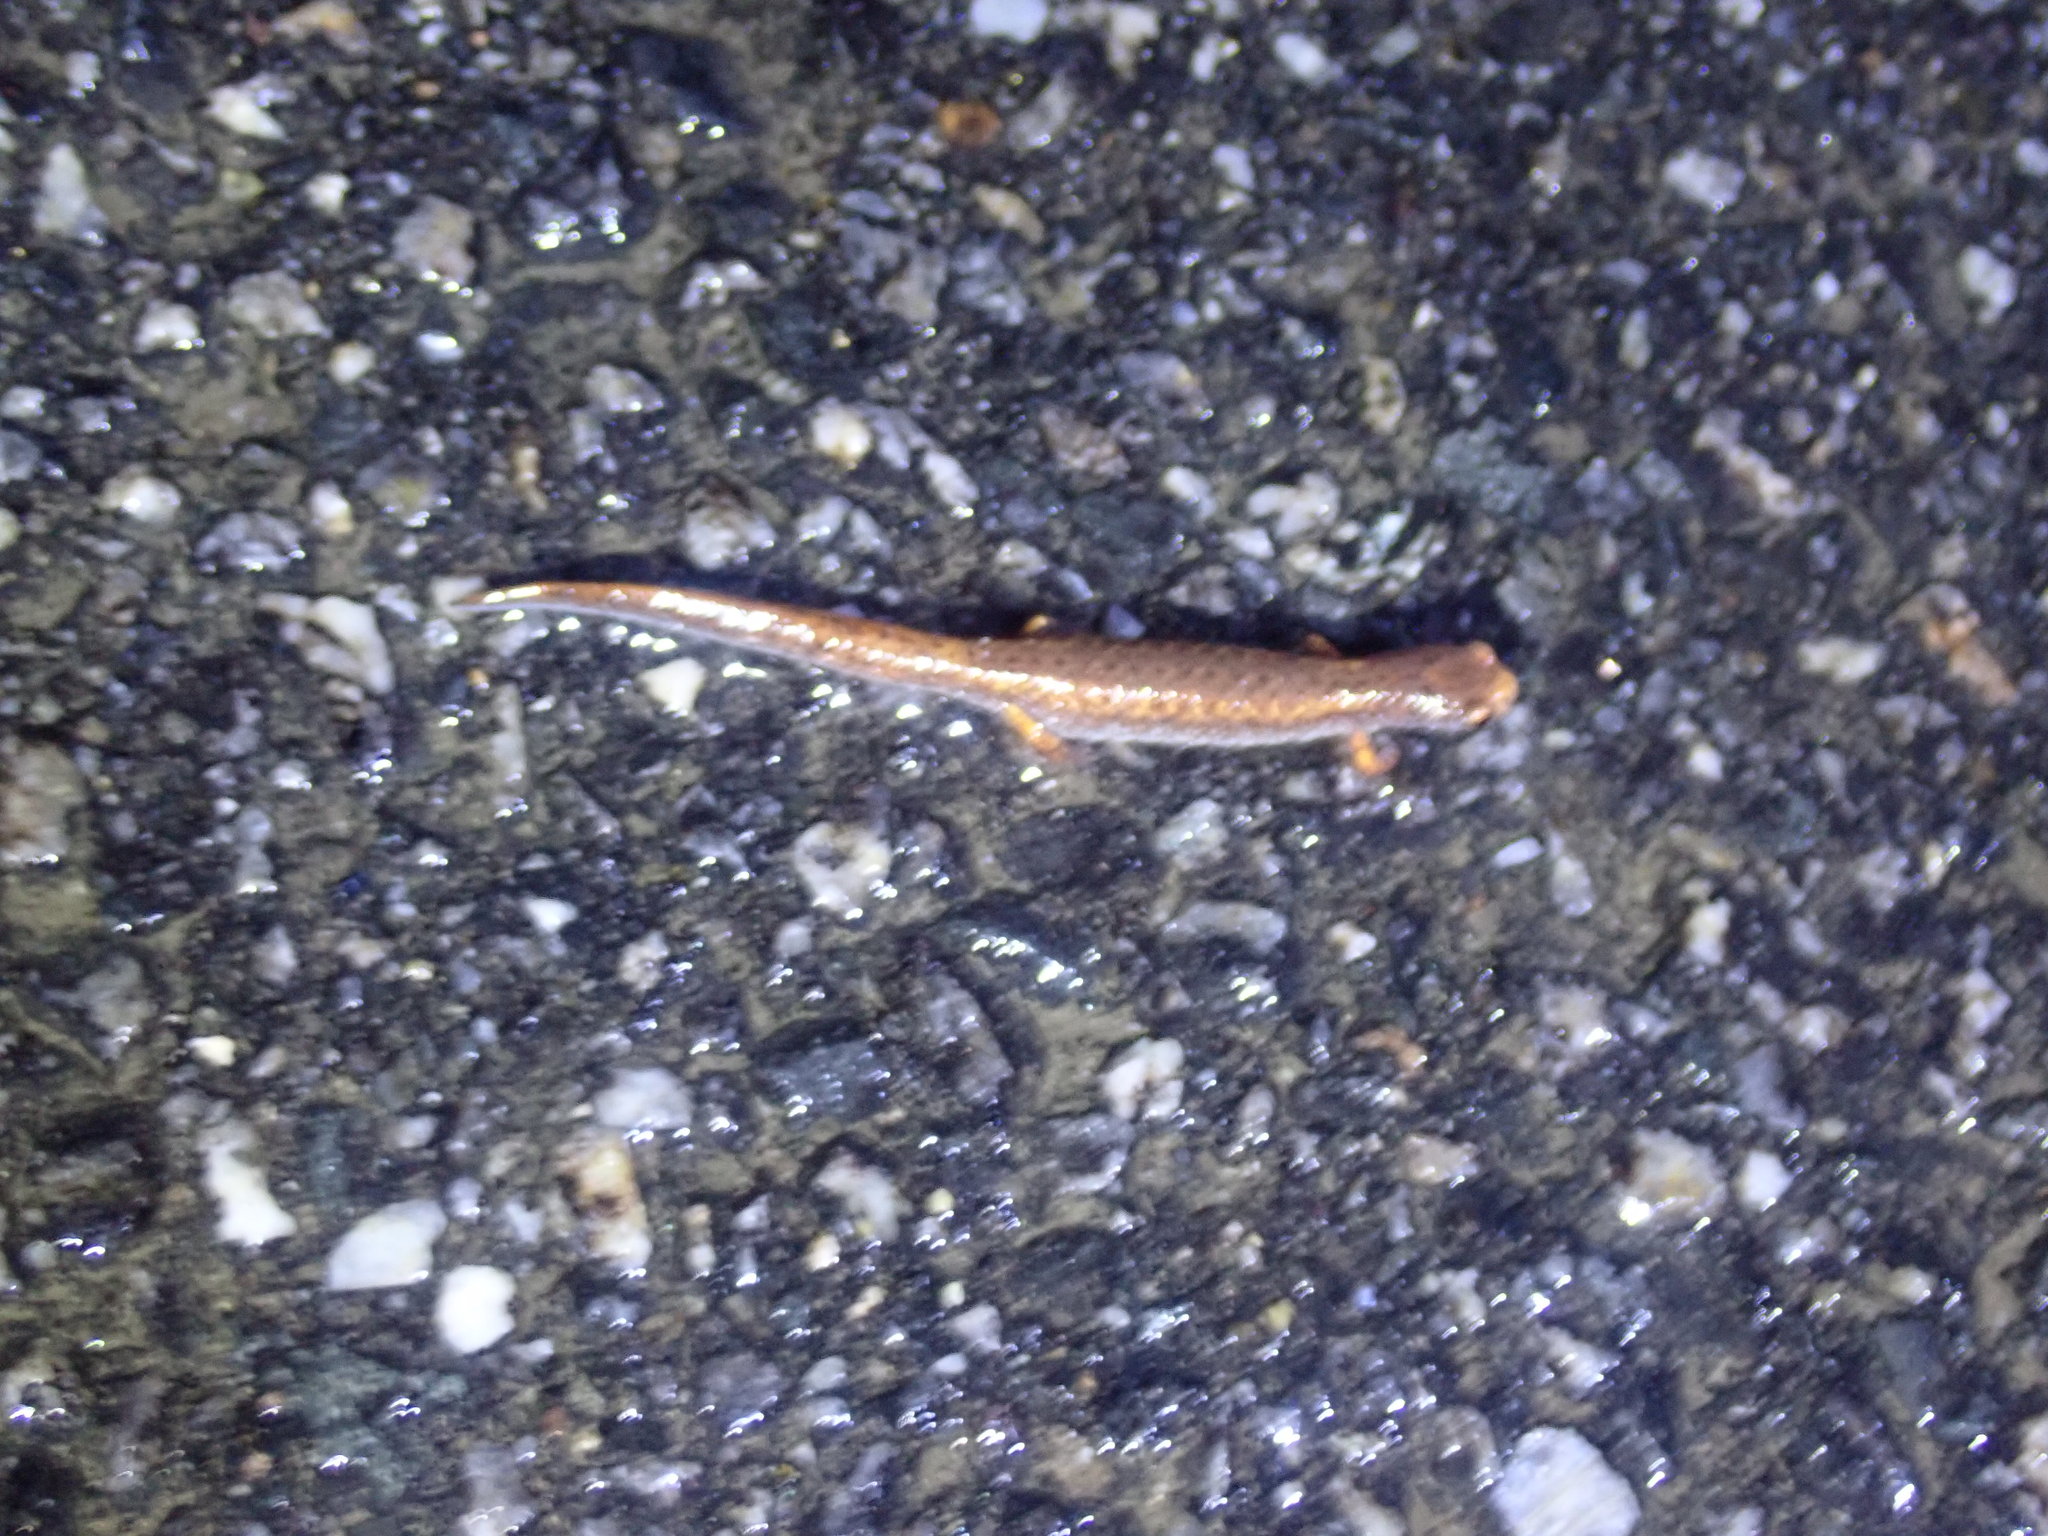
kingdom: Animalia
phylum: Chordata
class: Amphibia
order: Caudata
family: Plethodontidae
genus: Hemidactylium
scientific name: Hemidactylium scutatum
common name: Four-toed salamander
